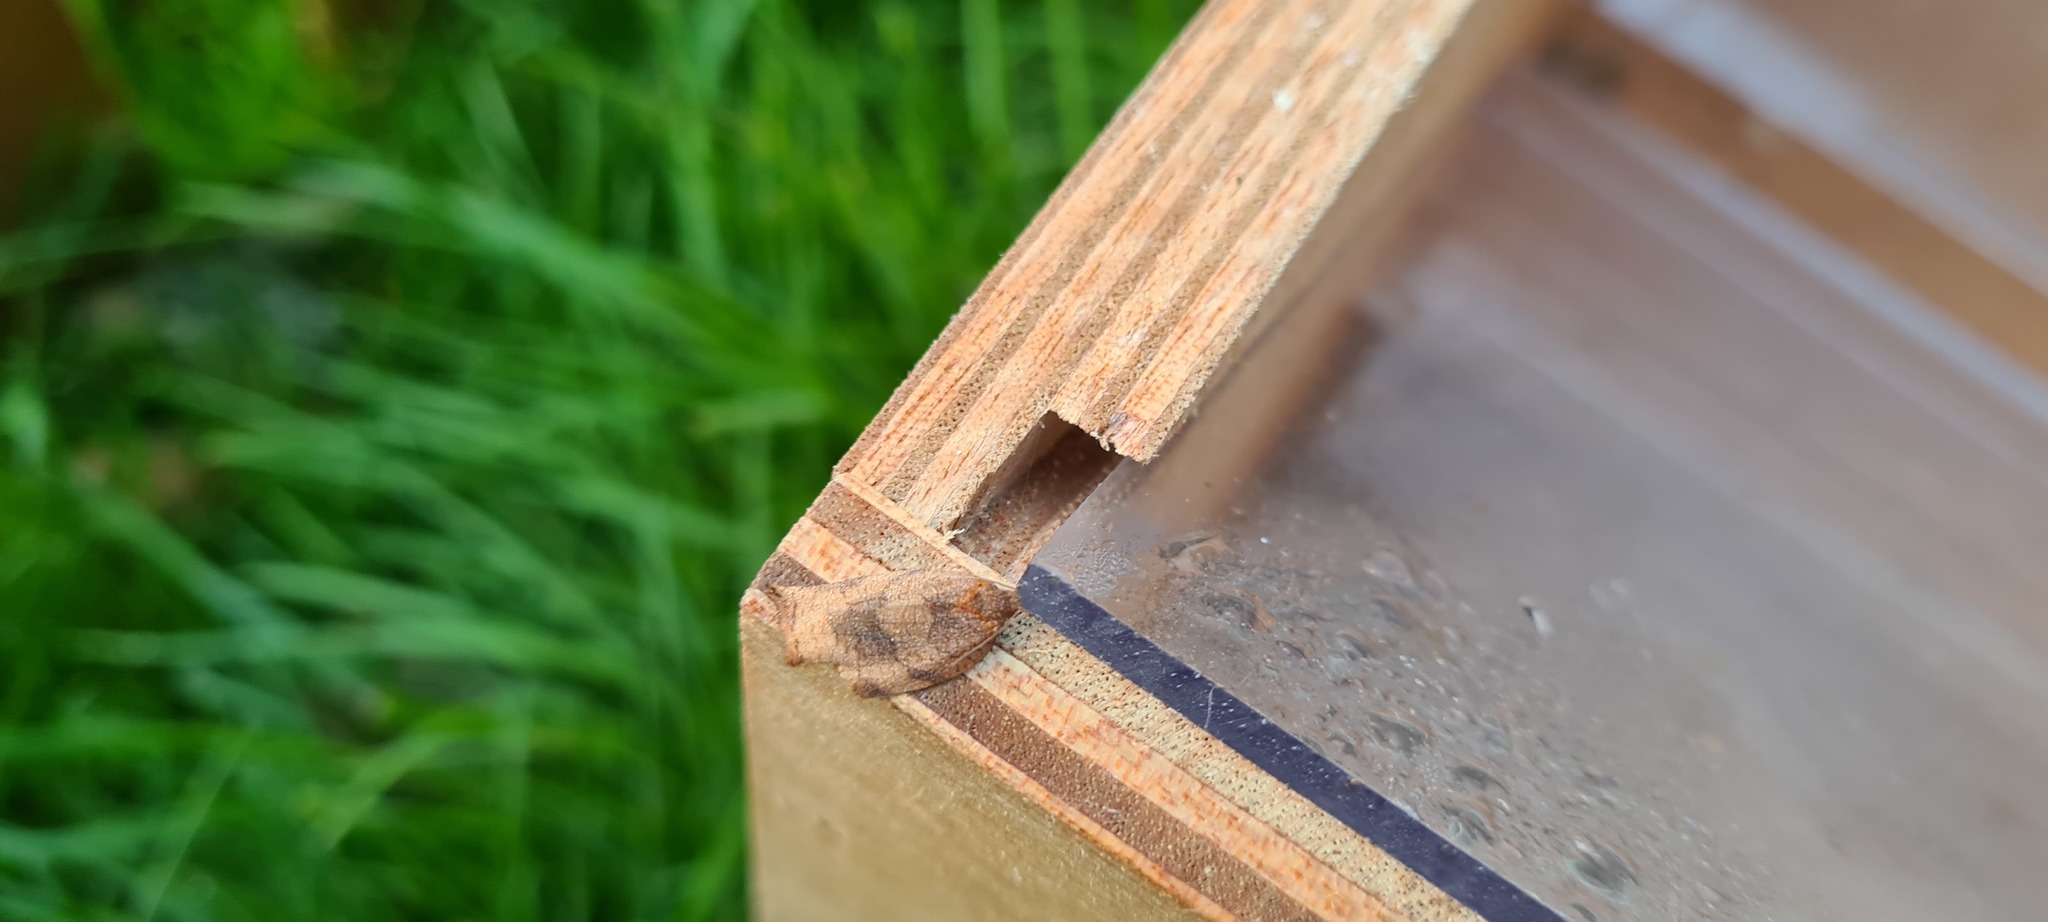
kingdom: Animalia
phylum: Arthropoda
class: Insecta
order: Lepidoptera
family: Tortricidae
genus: Archips
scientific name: Archips podana
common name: Large fruit-tree tortrix
